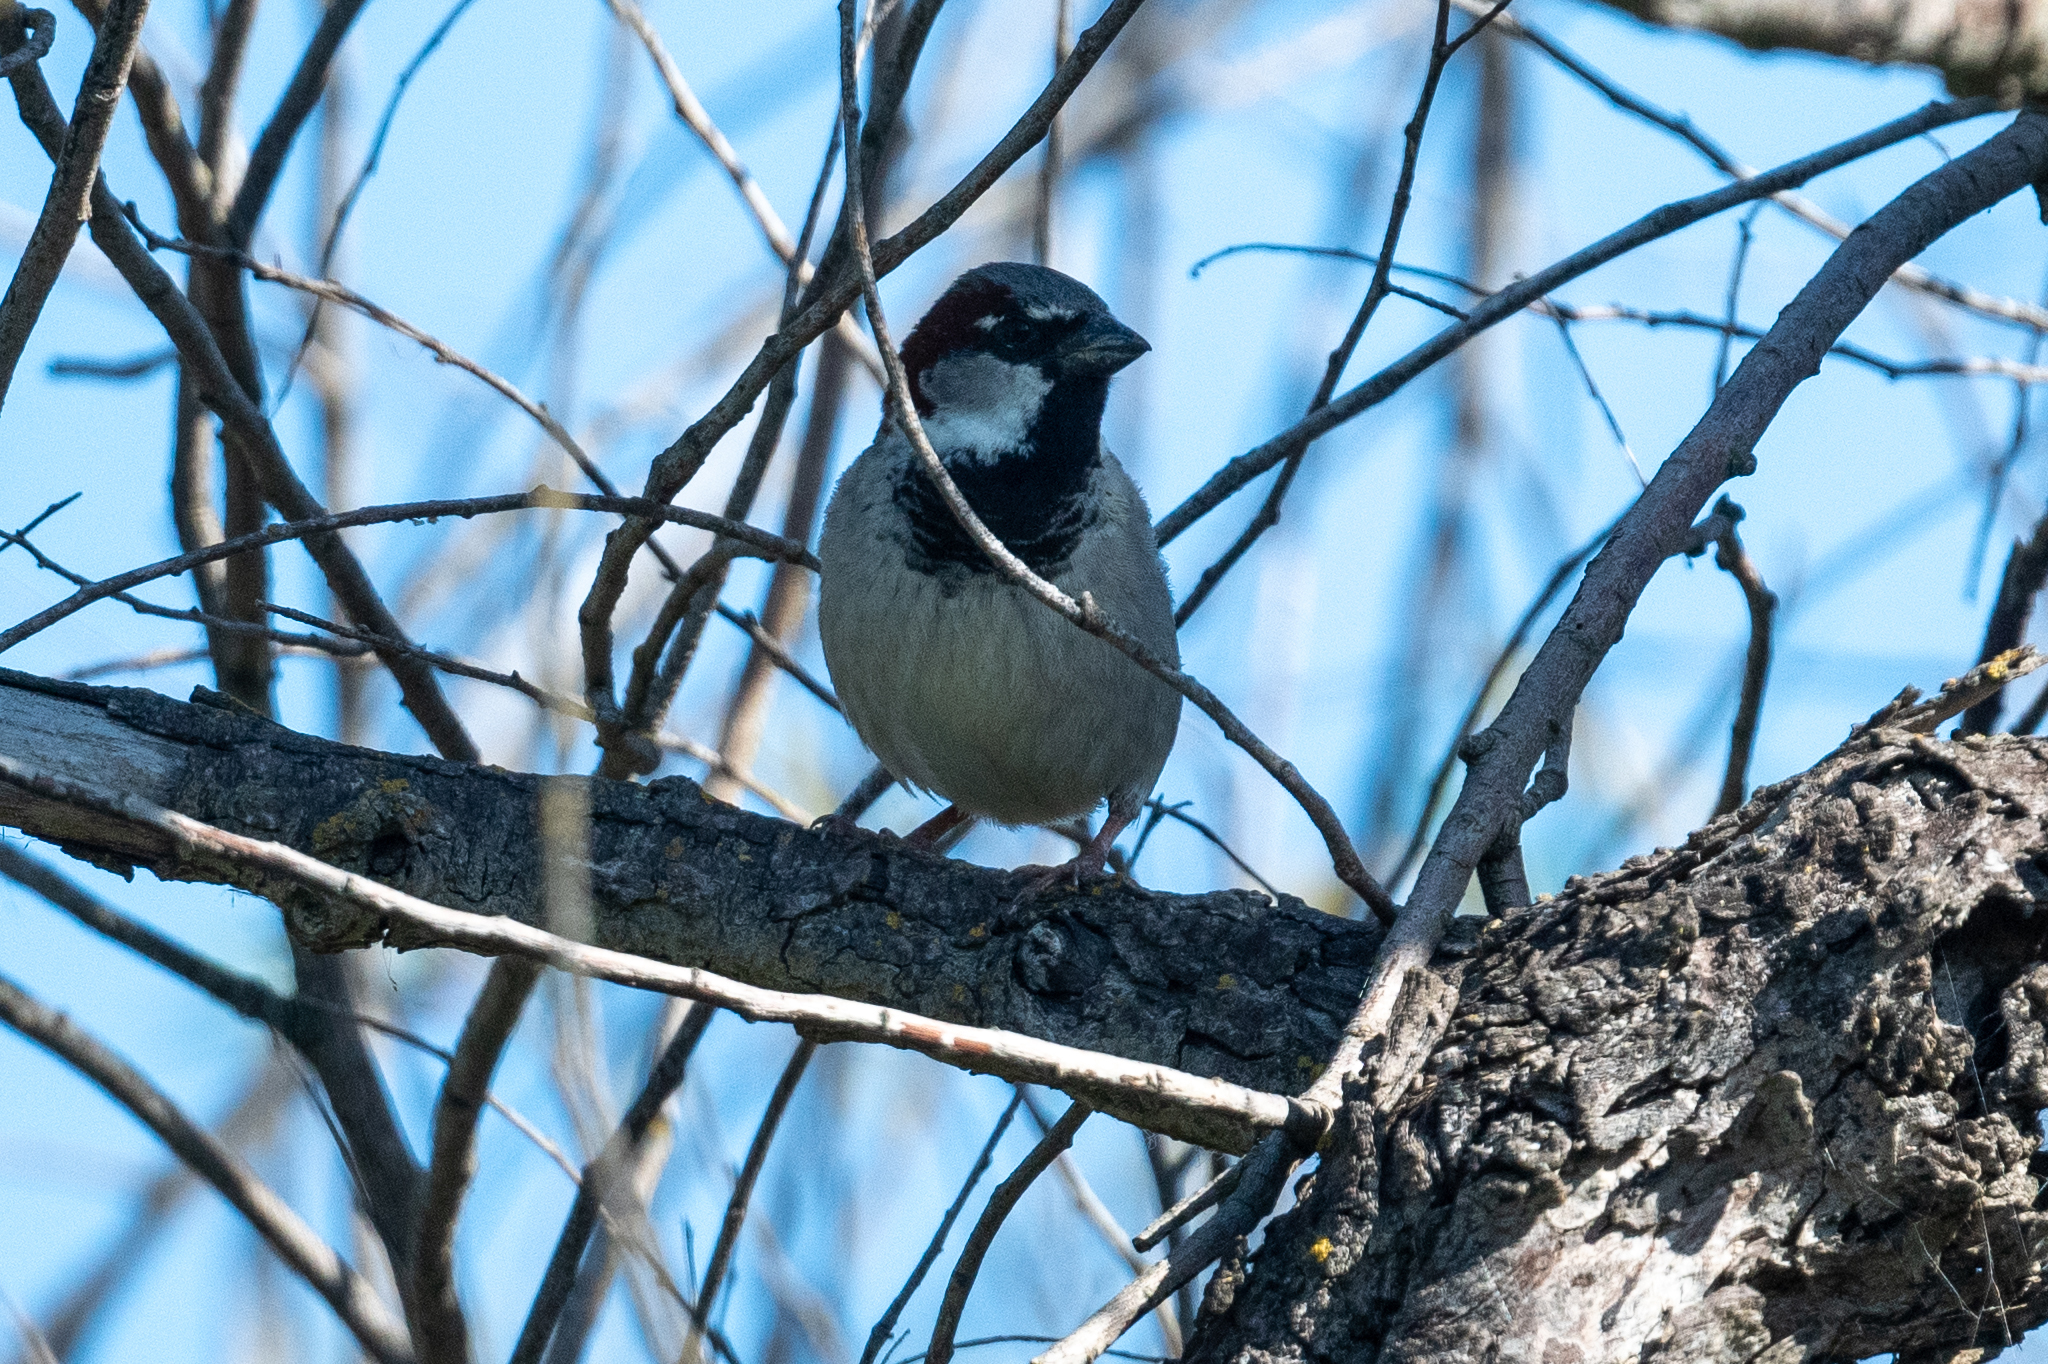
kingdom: Animalia
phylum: Chordata
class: Aves
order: Passeriformes
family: Passeridae
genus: Passer
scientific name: Passer domesticus
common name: House sparrow
